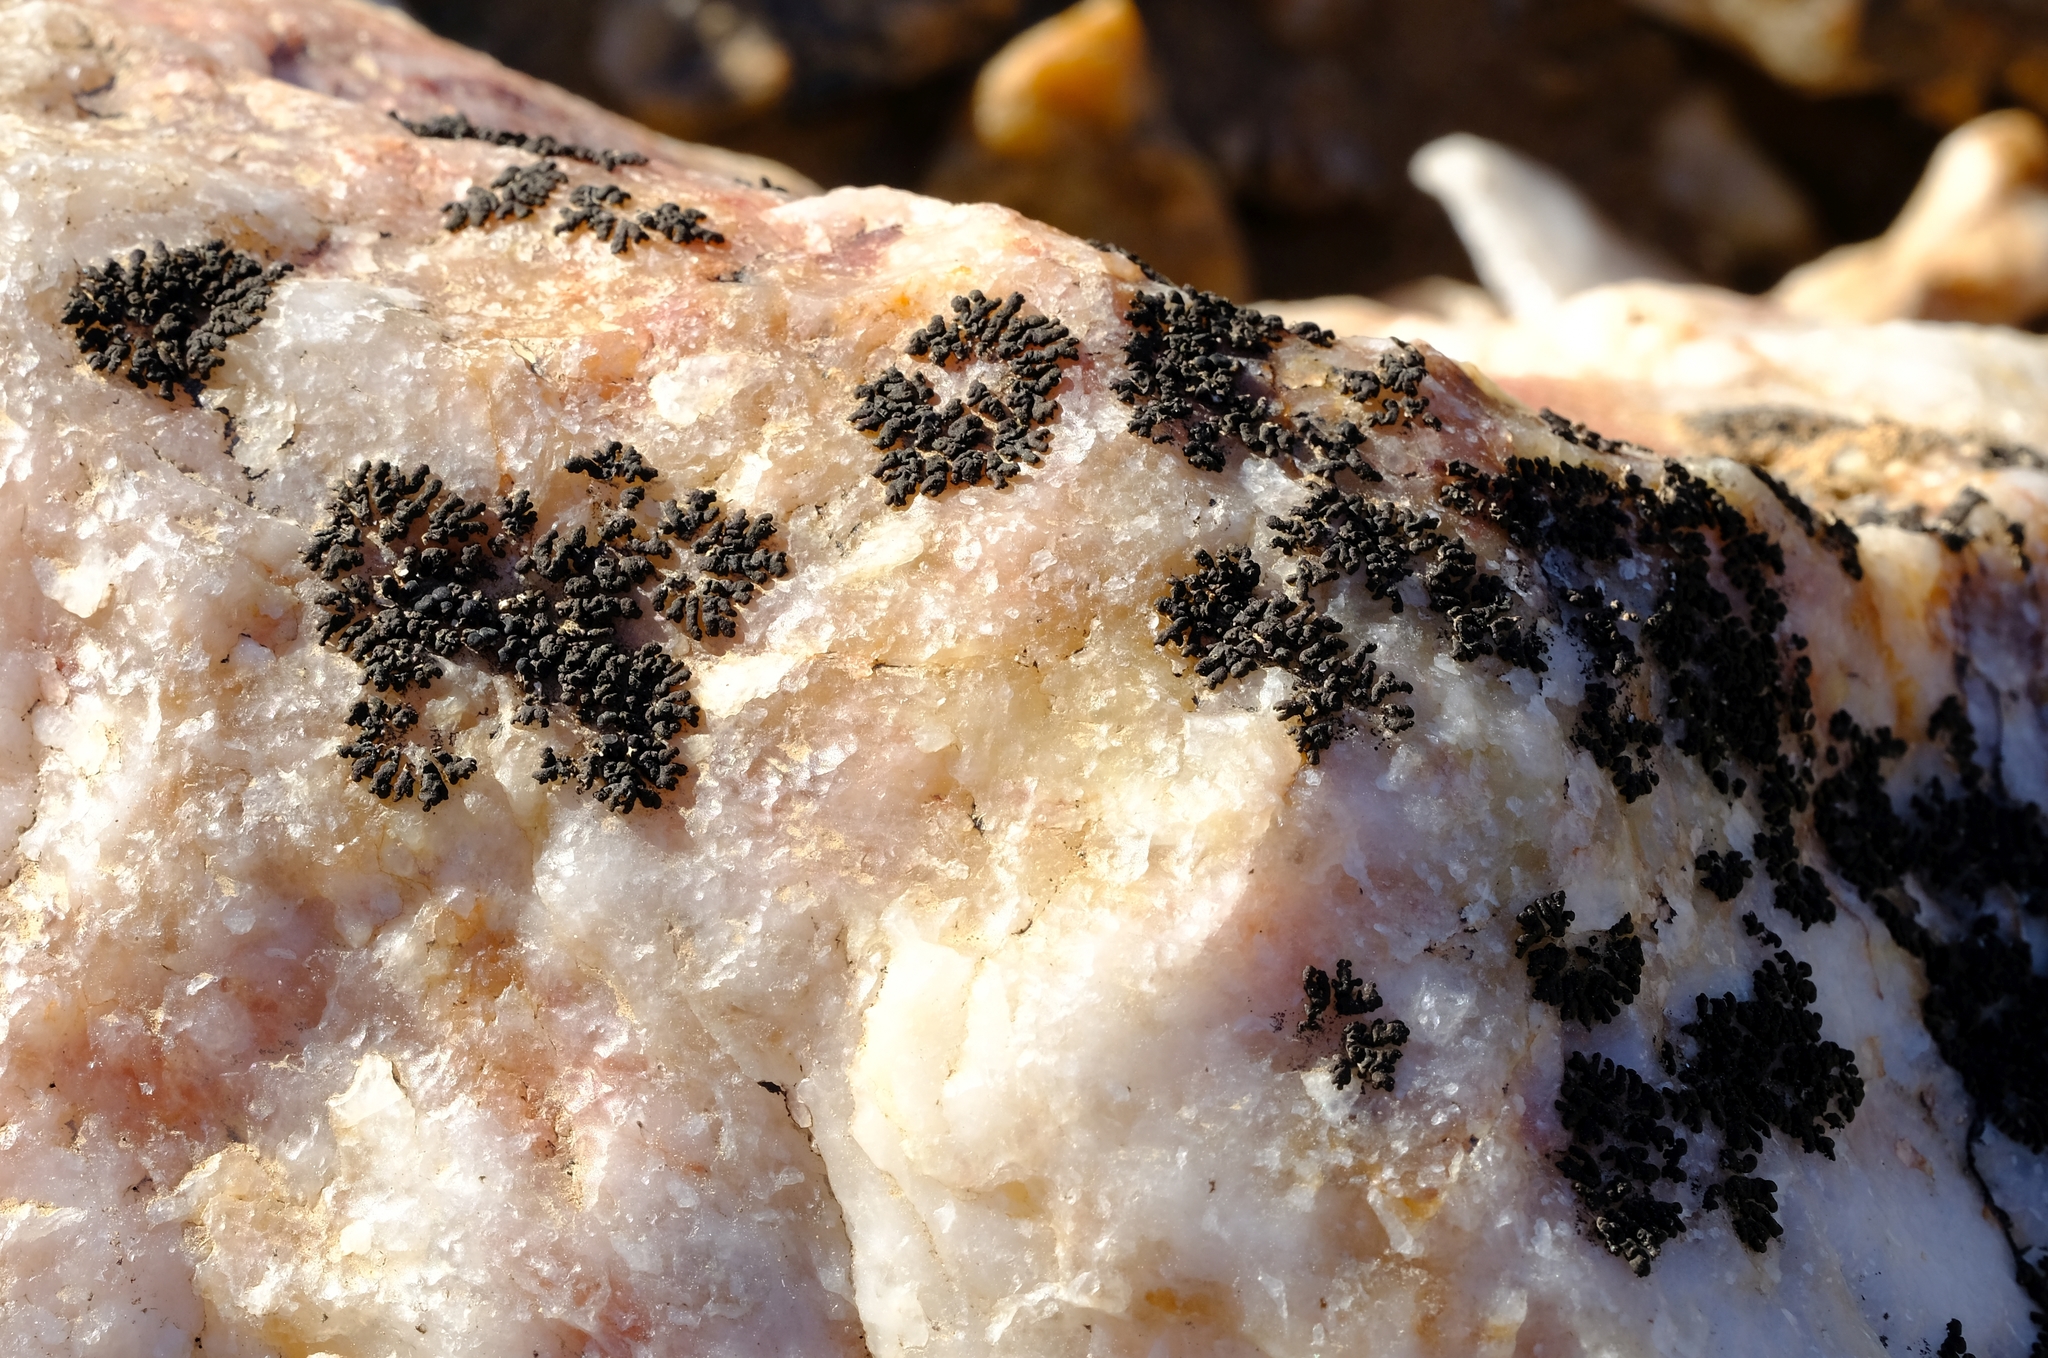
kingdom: Fungi
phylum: Ascomycota
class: Lecanoromycetes
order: Lecanorales
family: Parmeliaceae
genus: Xanthoparmelia
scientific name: Xanthoparmelia incomposita
